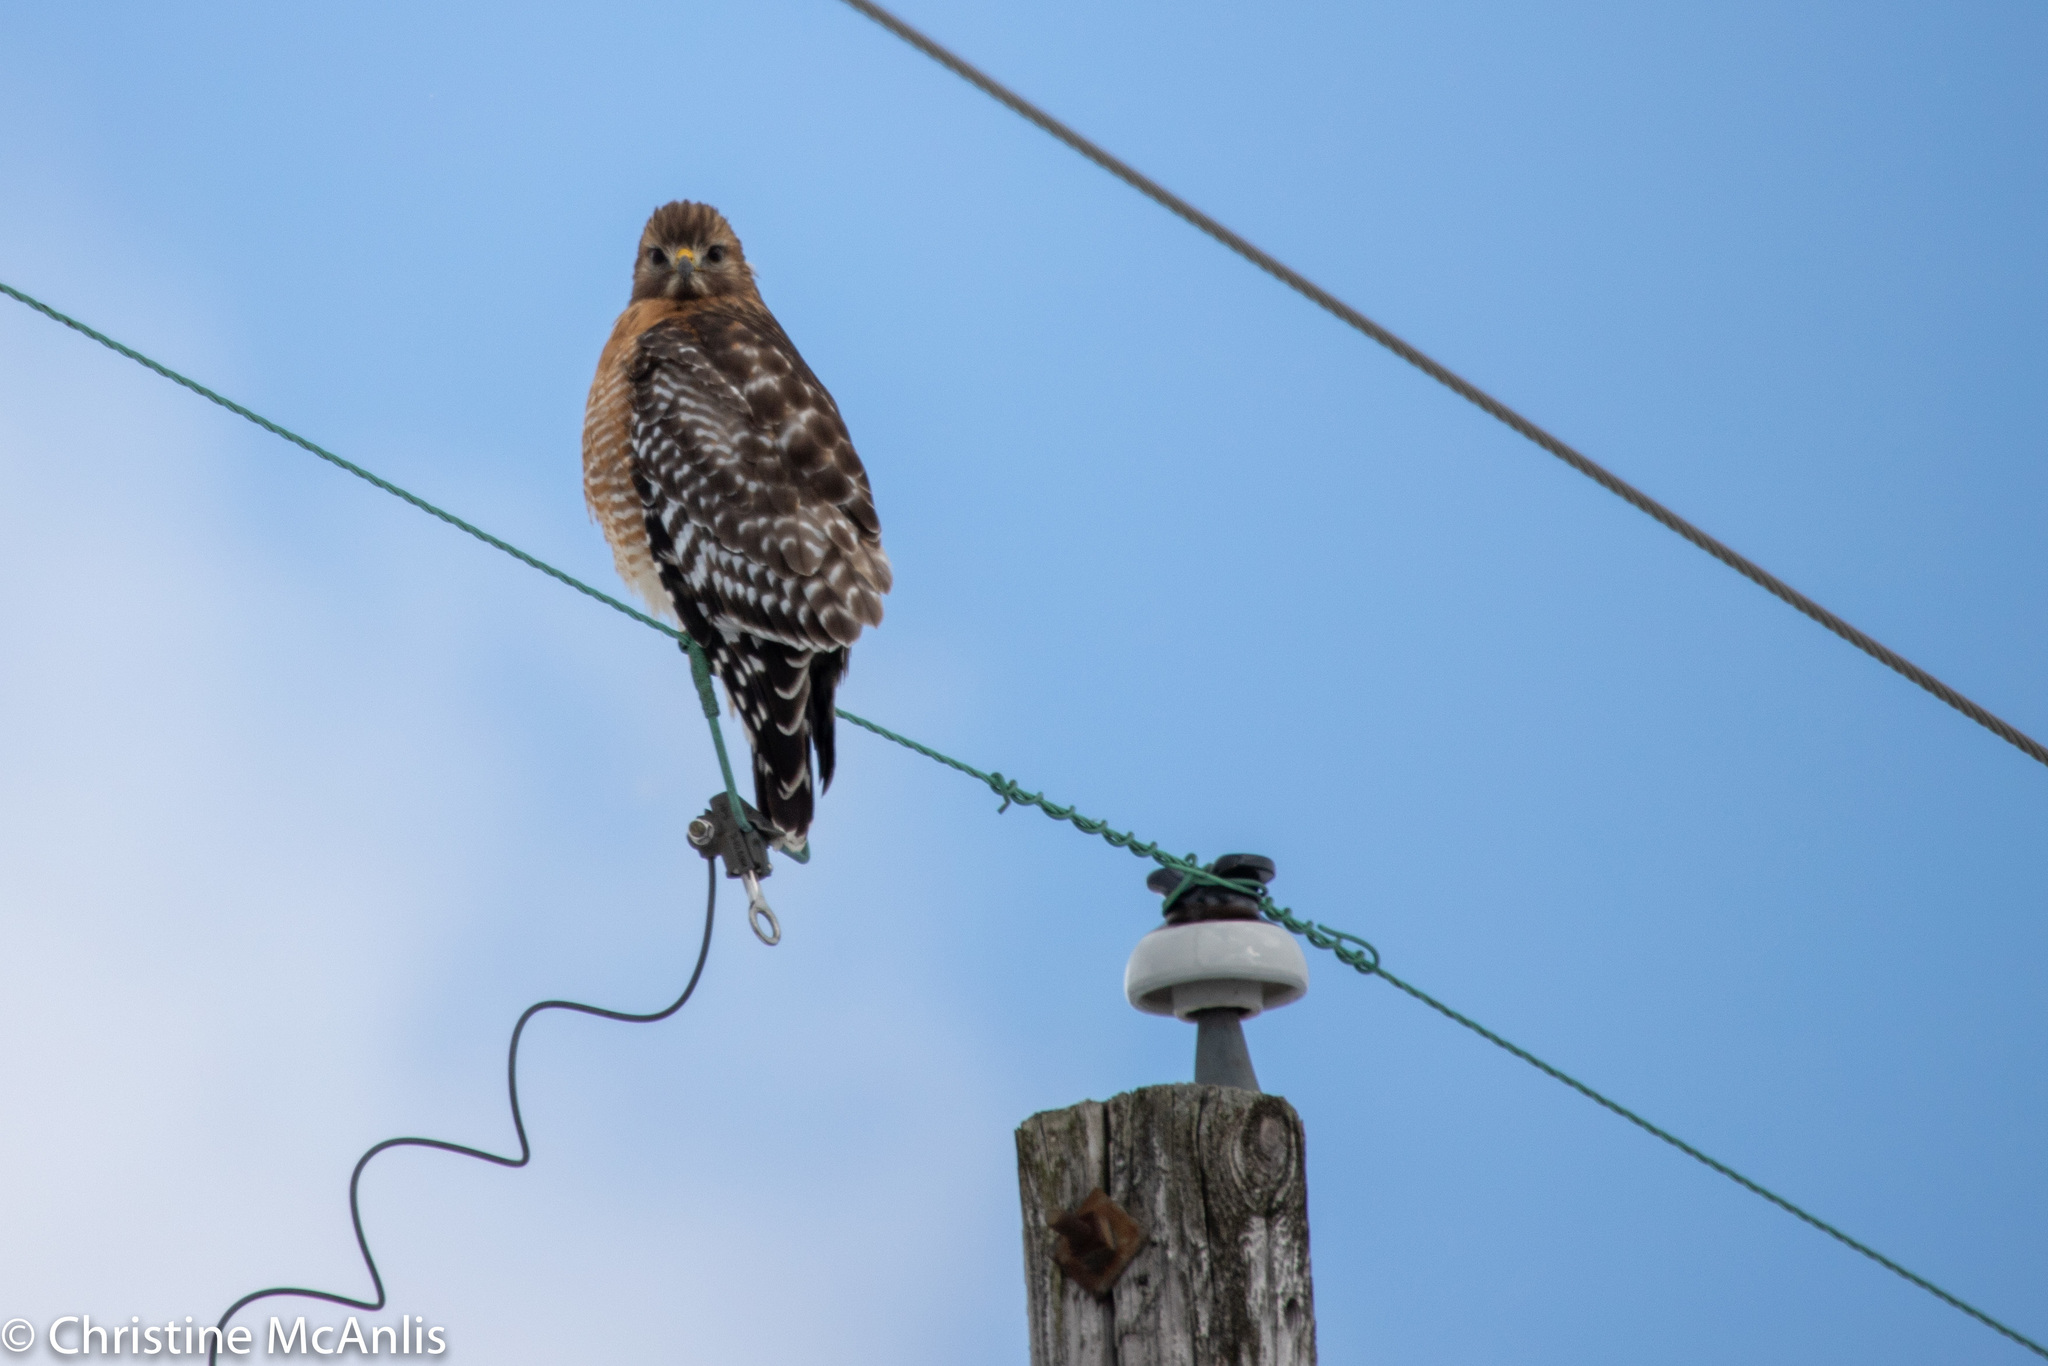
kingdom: Animalia
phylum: Chordata
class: Aves
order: Accipitriformes
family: Accipitridae
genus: Buteo
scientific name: Buteo lineatus
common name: Red-shouldered hawk
